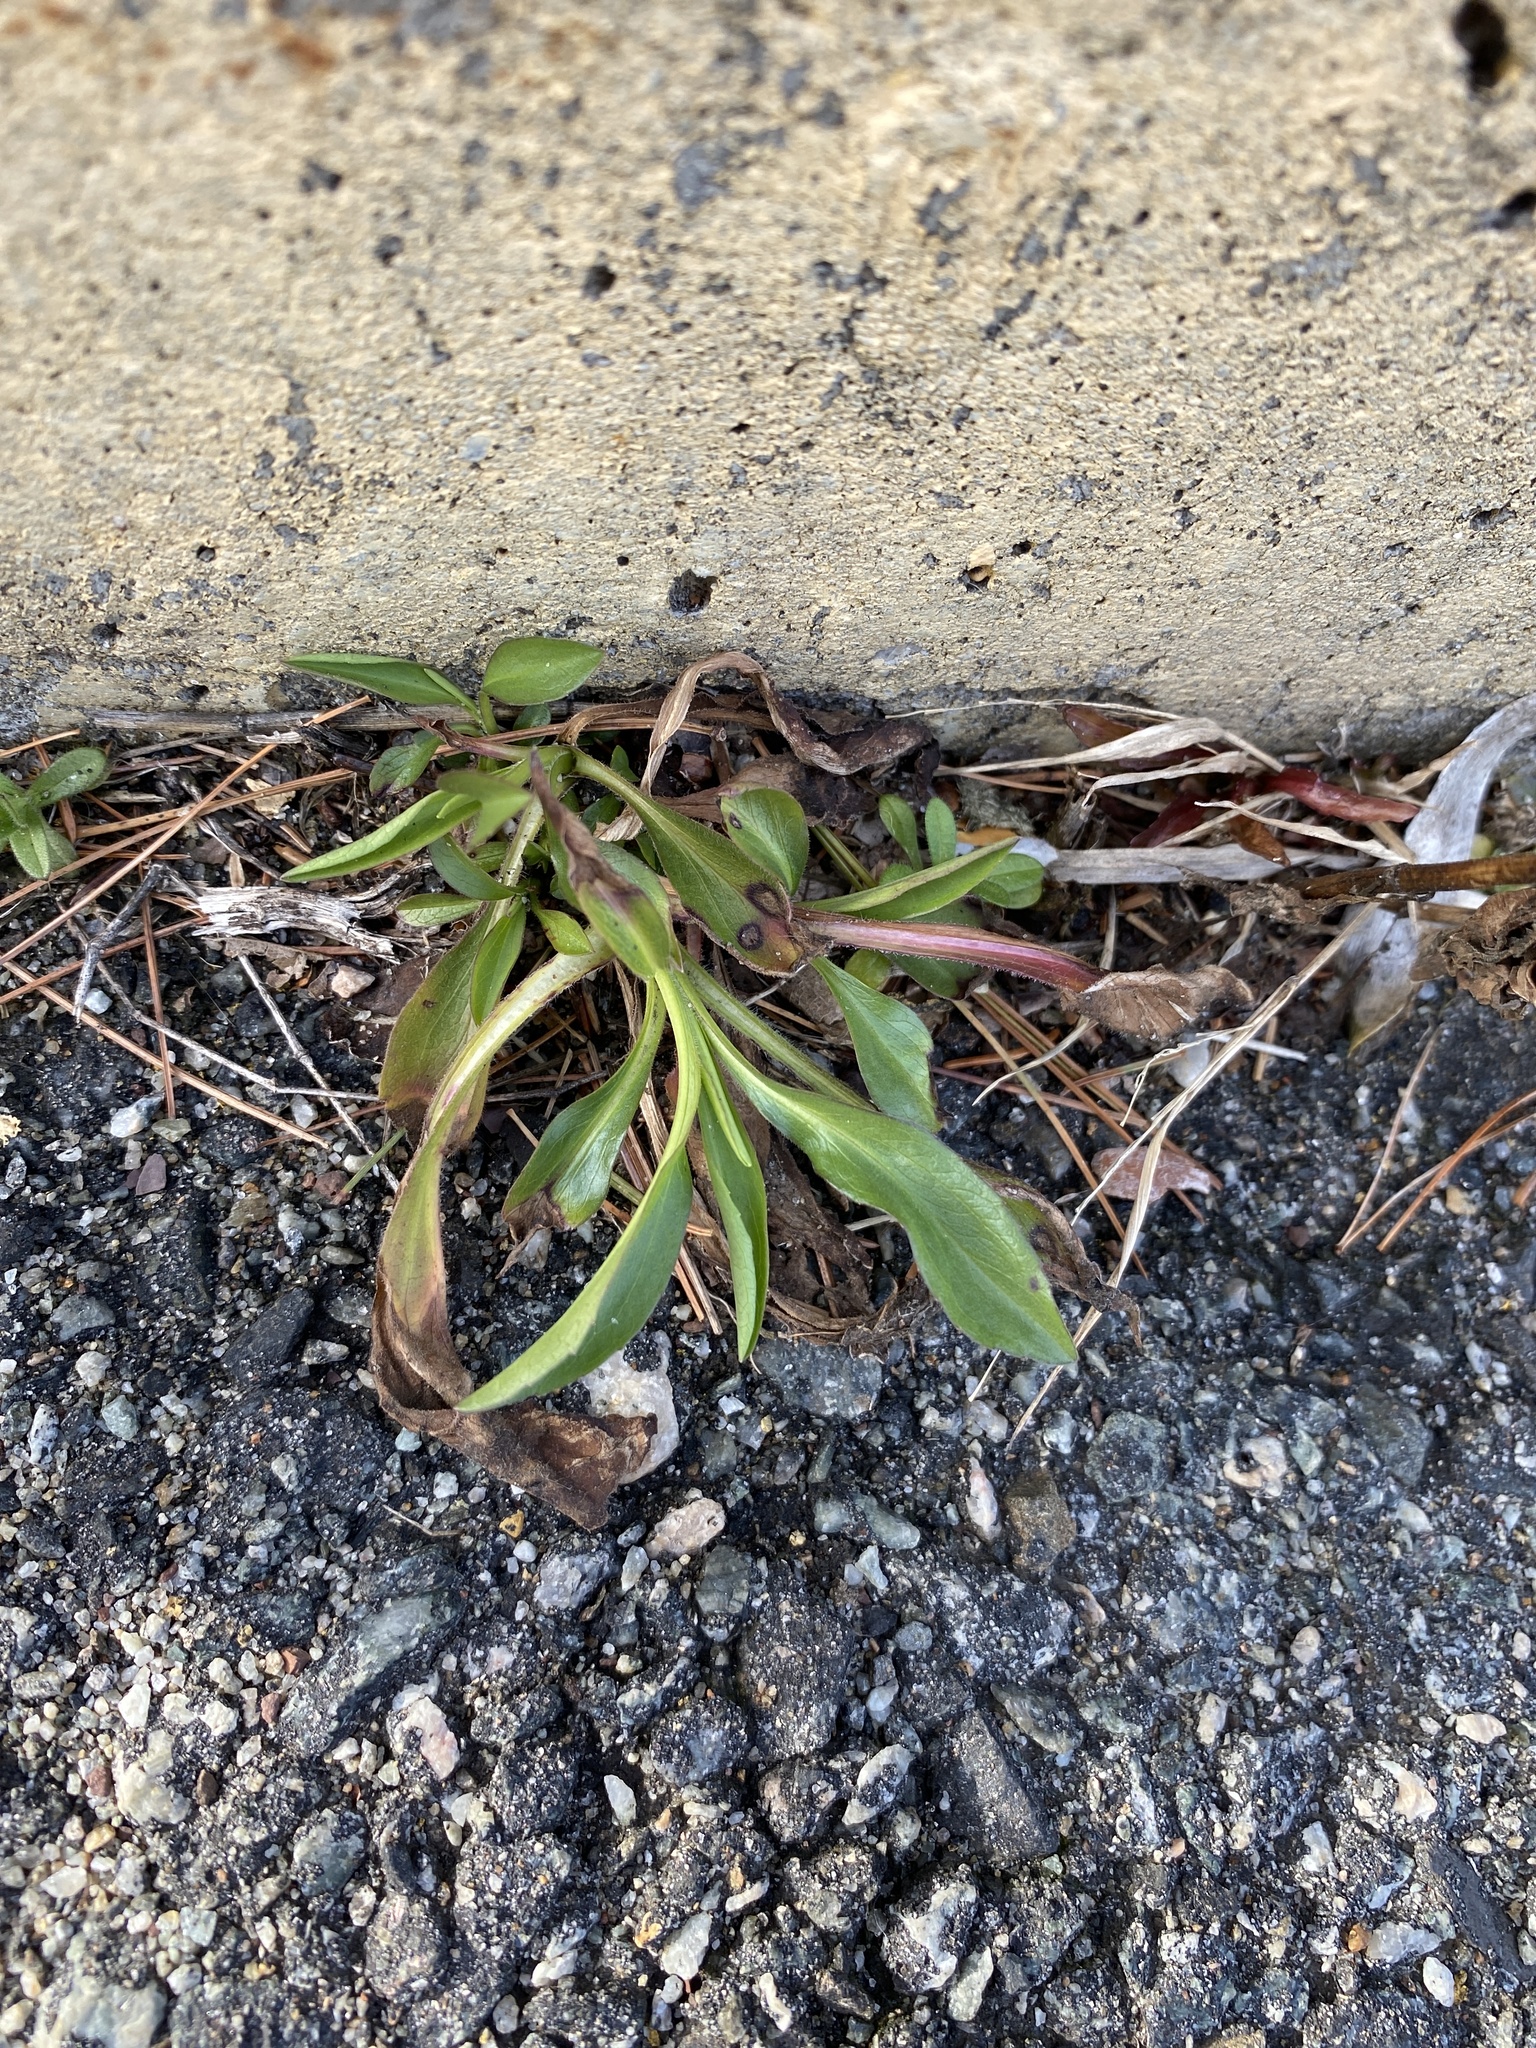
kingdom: Plantae
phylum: Tracheophyta
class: Magnoliopsida
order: Asterales
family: Asteraceae
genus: Solidago
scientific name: Solidago sempervirens
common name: Salt-marsh goldenrod
